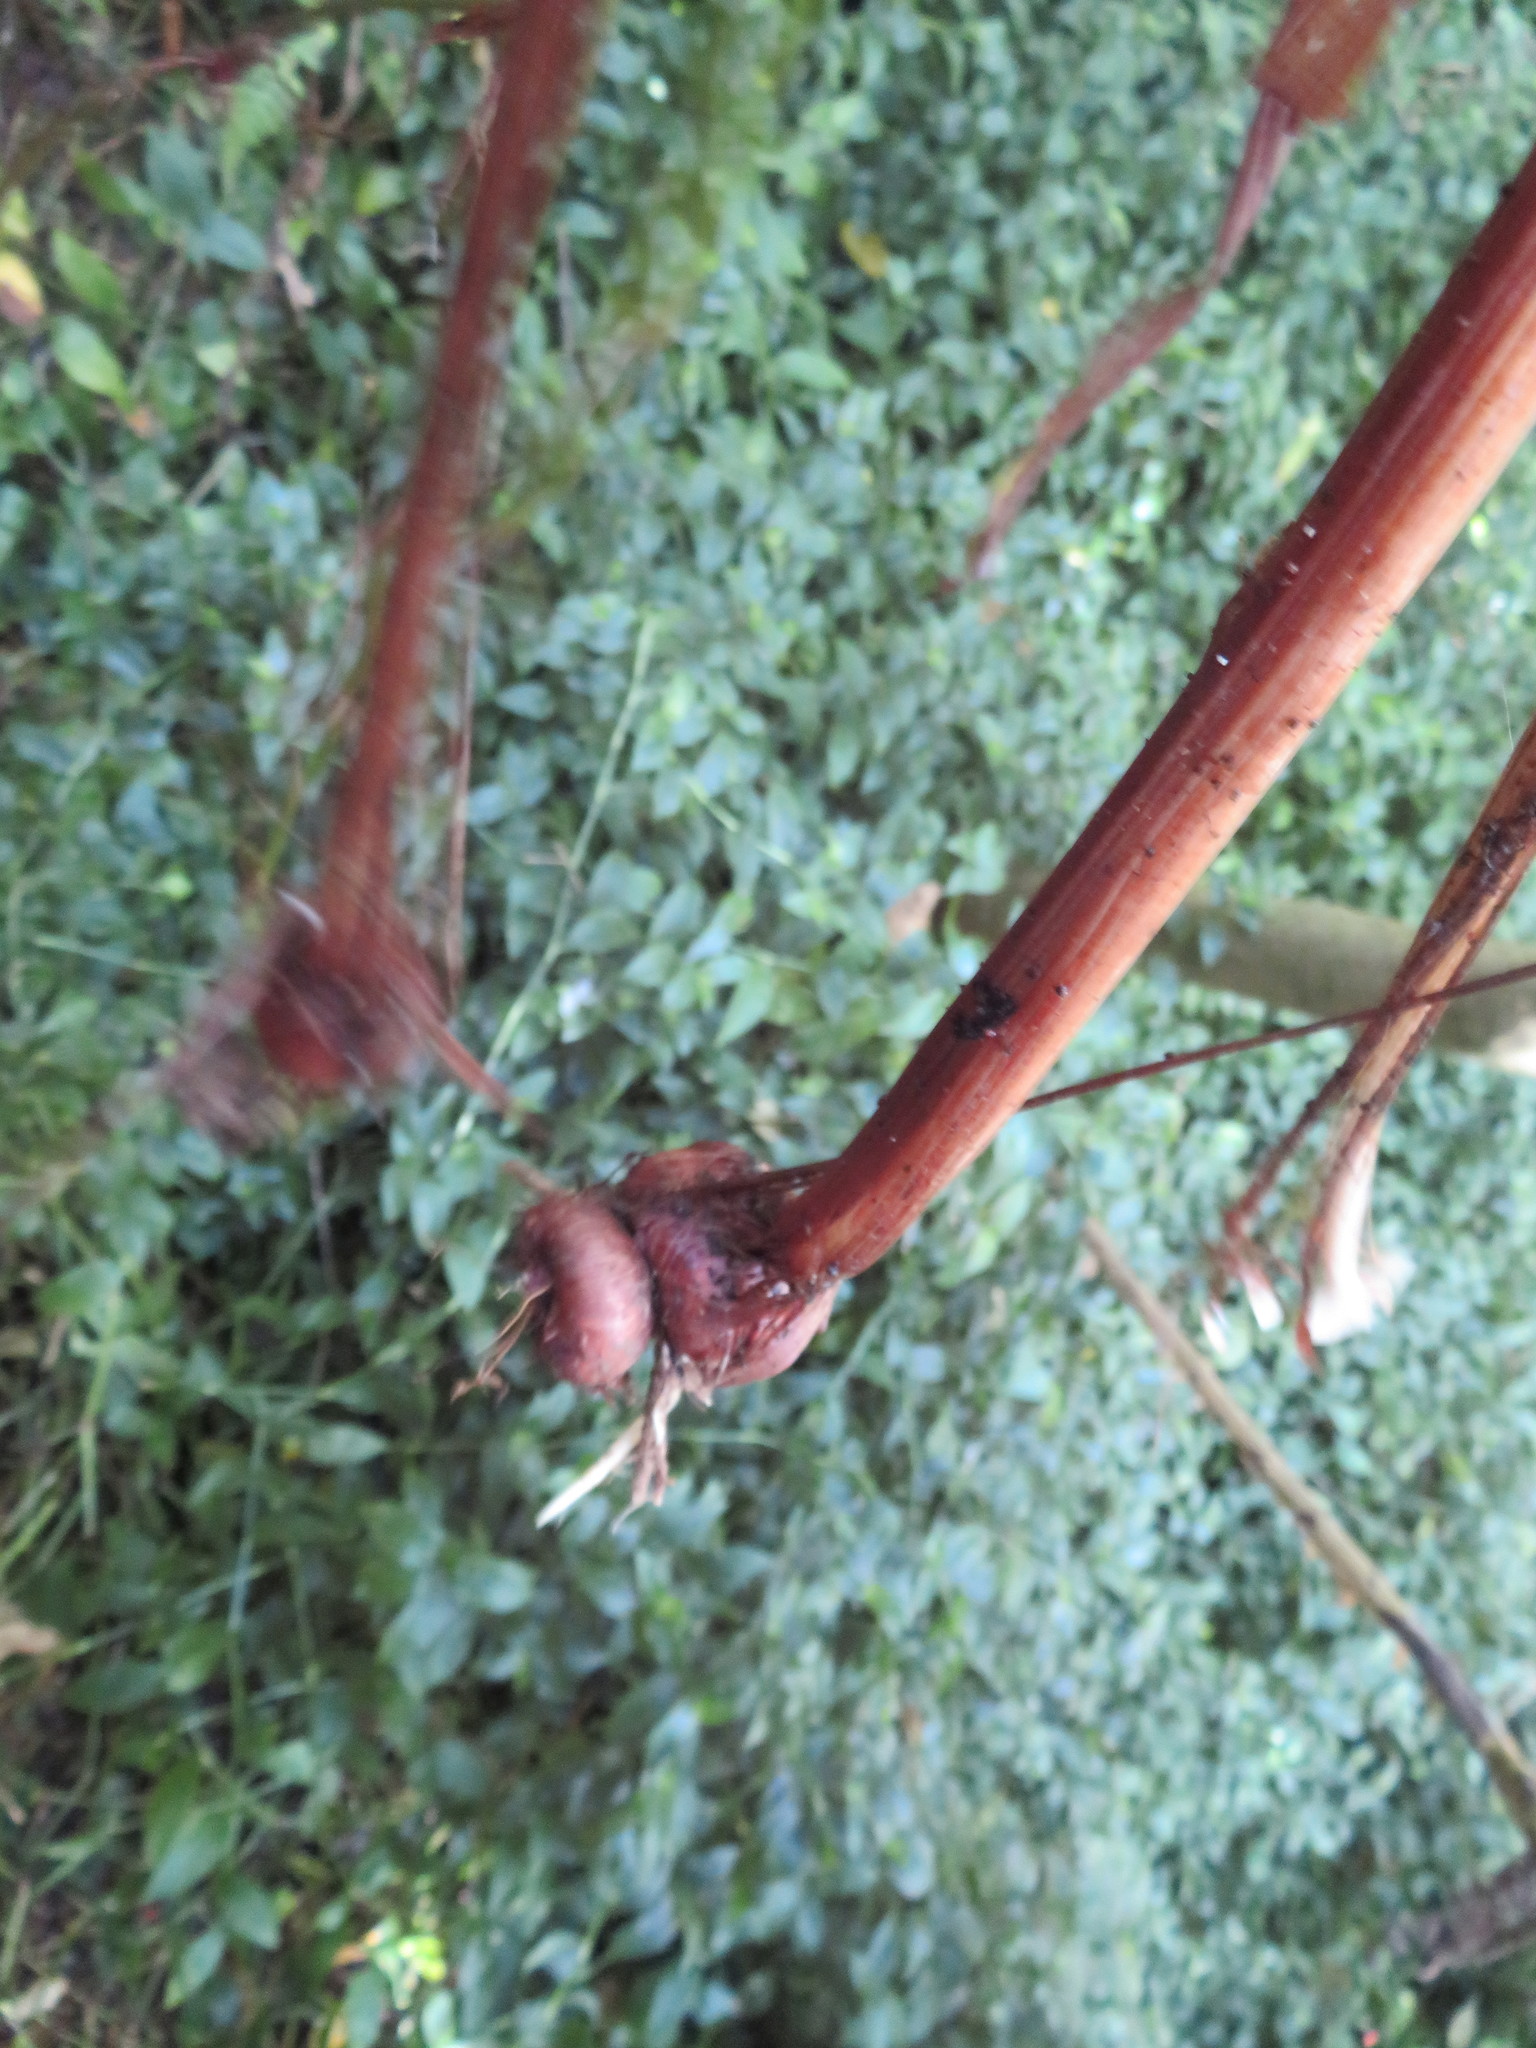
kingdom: Plantae
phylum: Tracheophyta
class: Liliopsida
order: Asparagales
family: Iridaceae
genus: Crocosmia
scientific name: Crocosmia crocosmiiflora
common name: Montbretia
